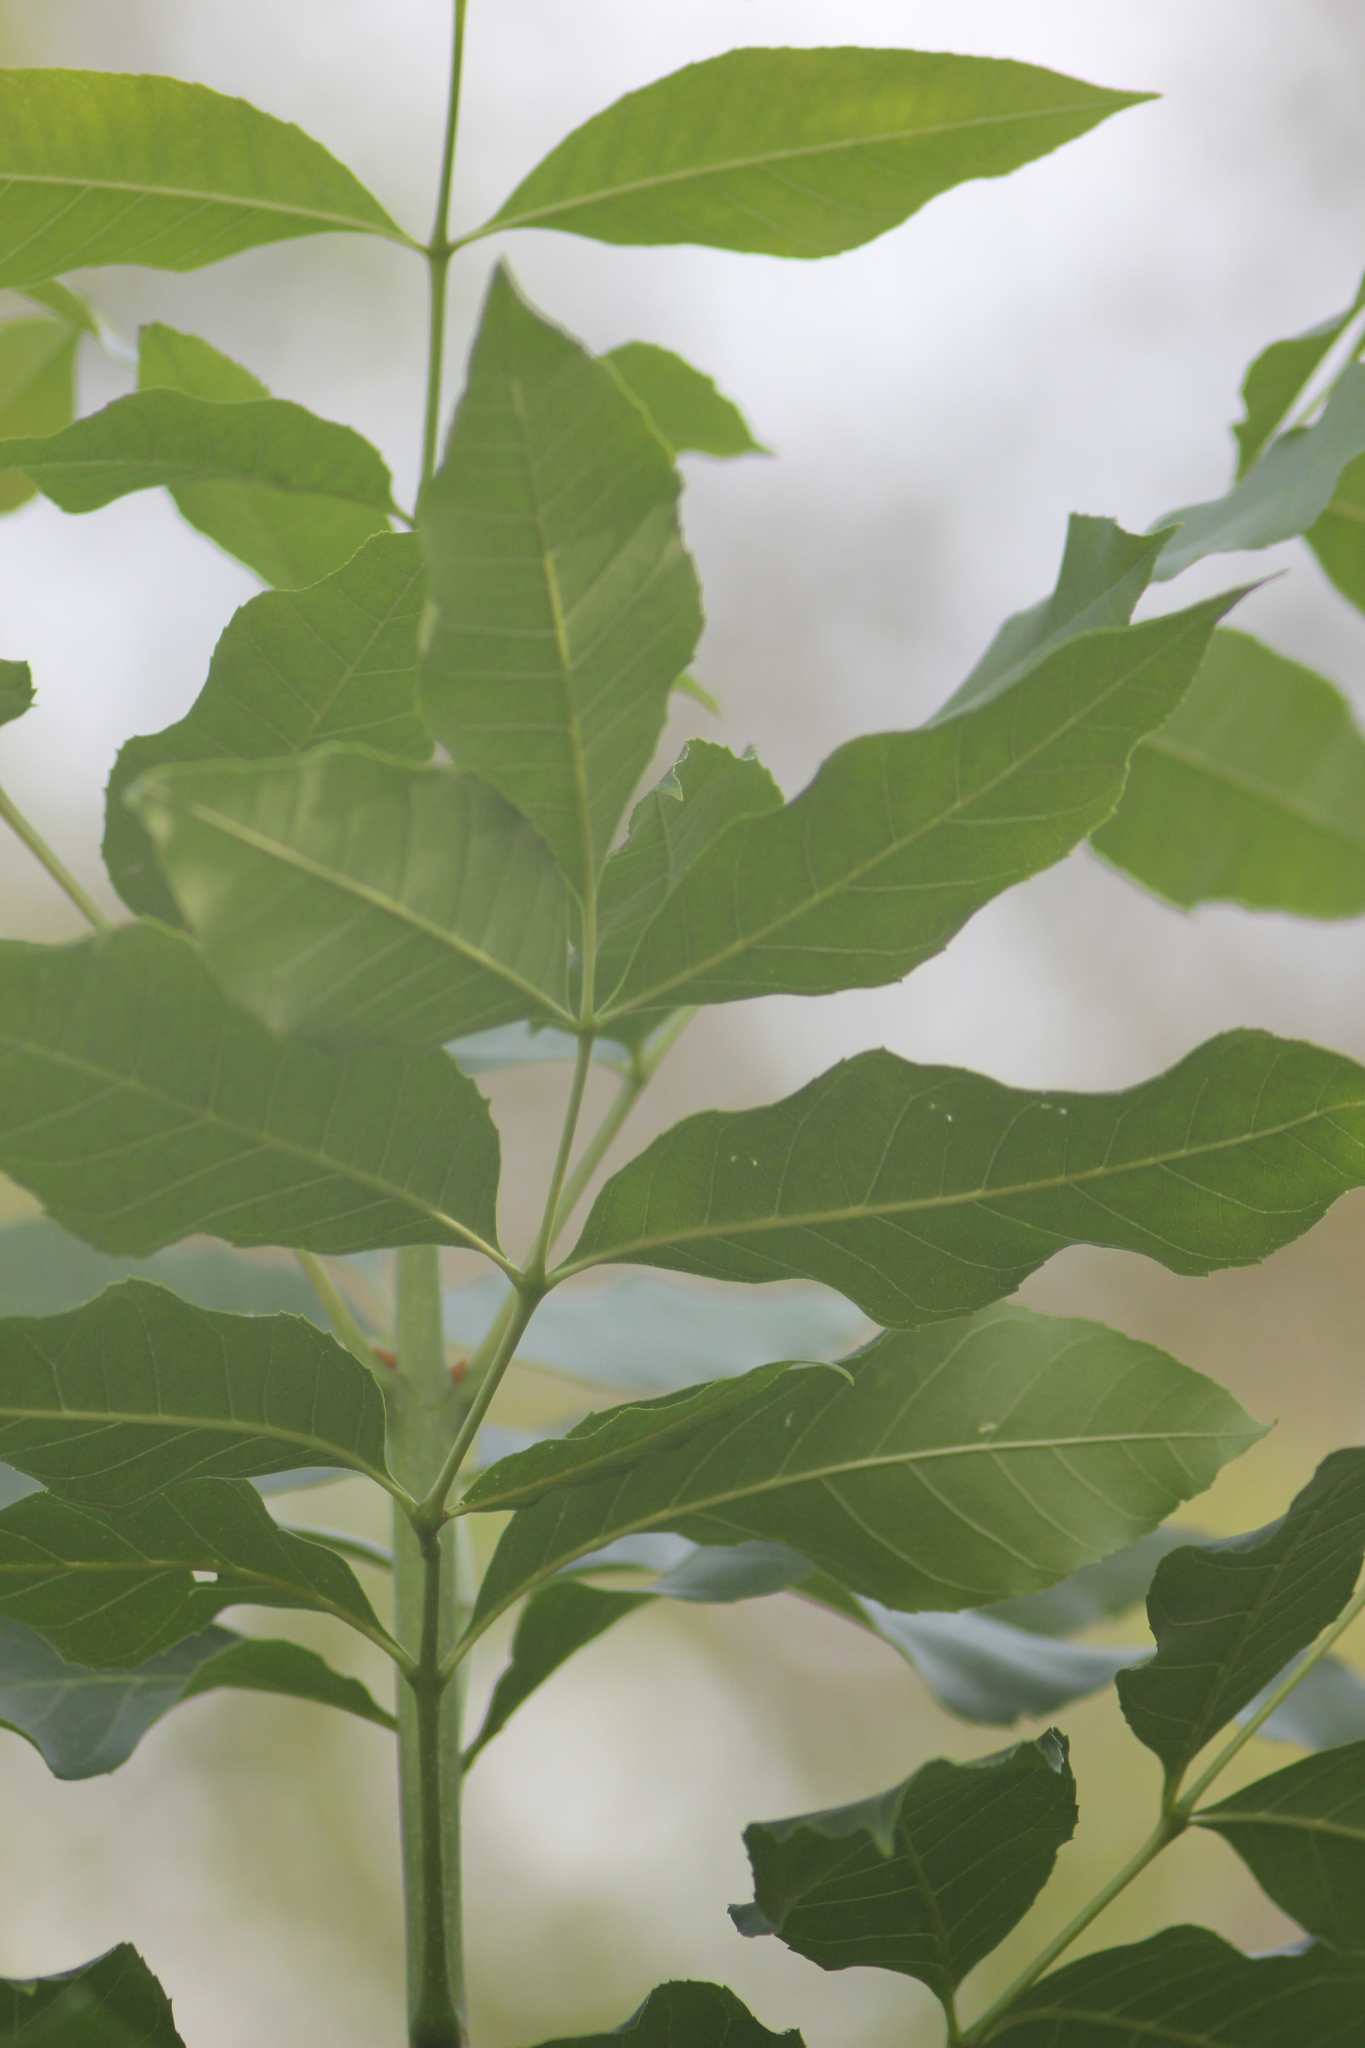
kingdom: Plantae
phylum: Tracheophyta
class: Magnoliopsida
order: Lamiales
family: Oleaceae
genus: Fraxinus
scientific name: Fraxinus pennsylvanica
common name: Green ash
